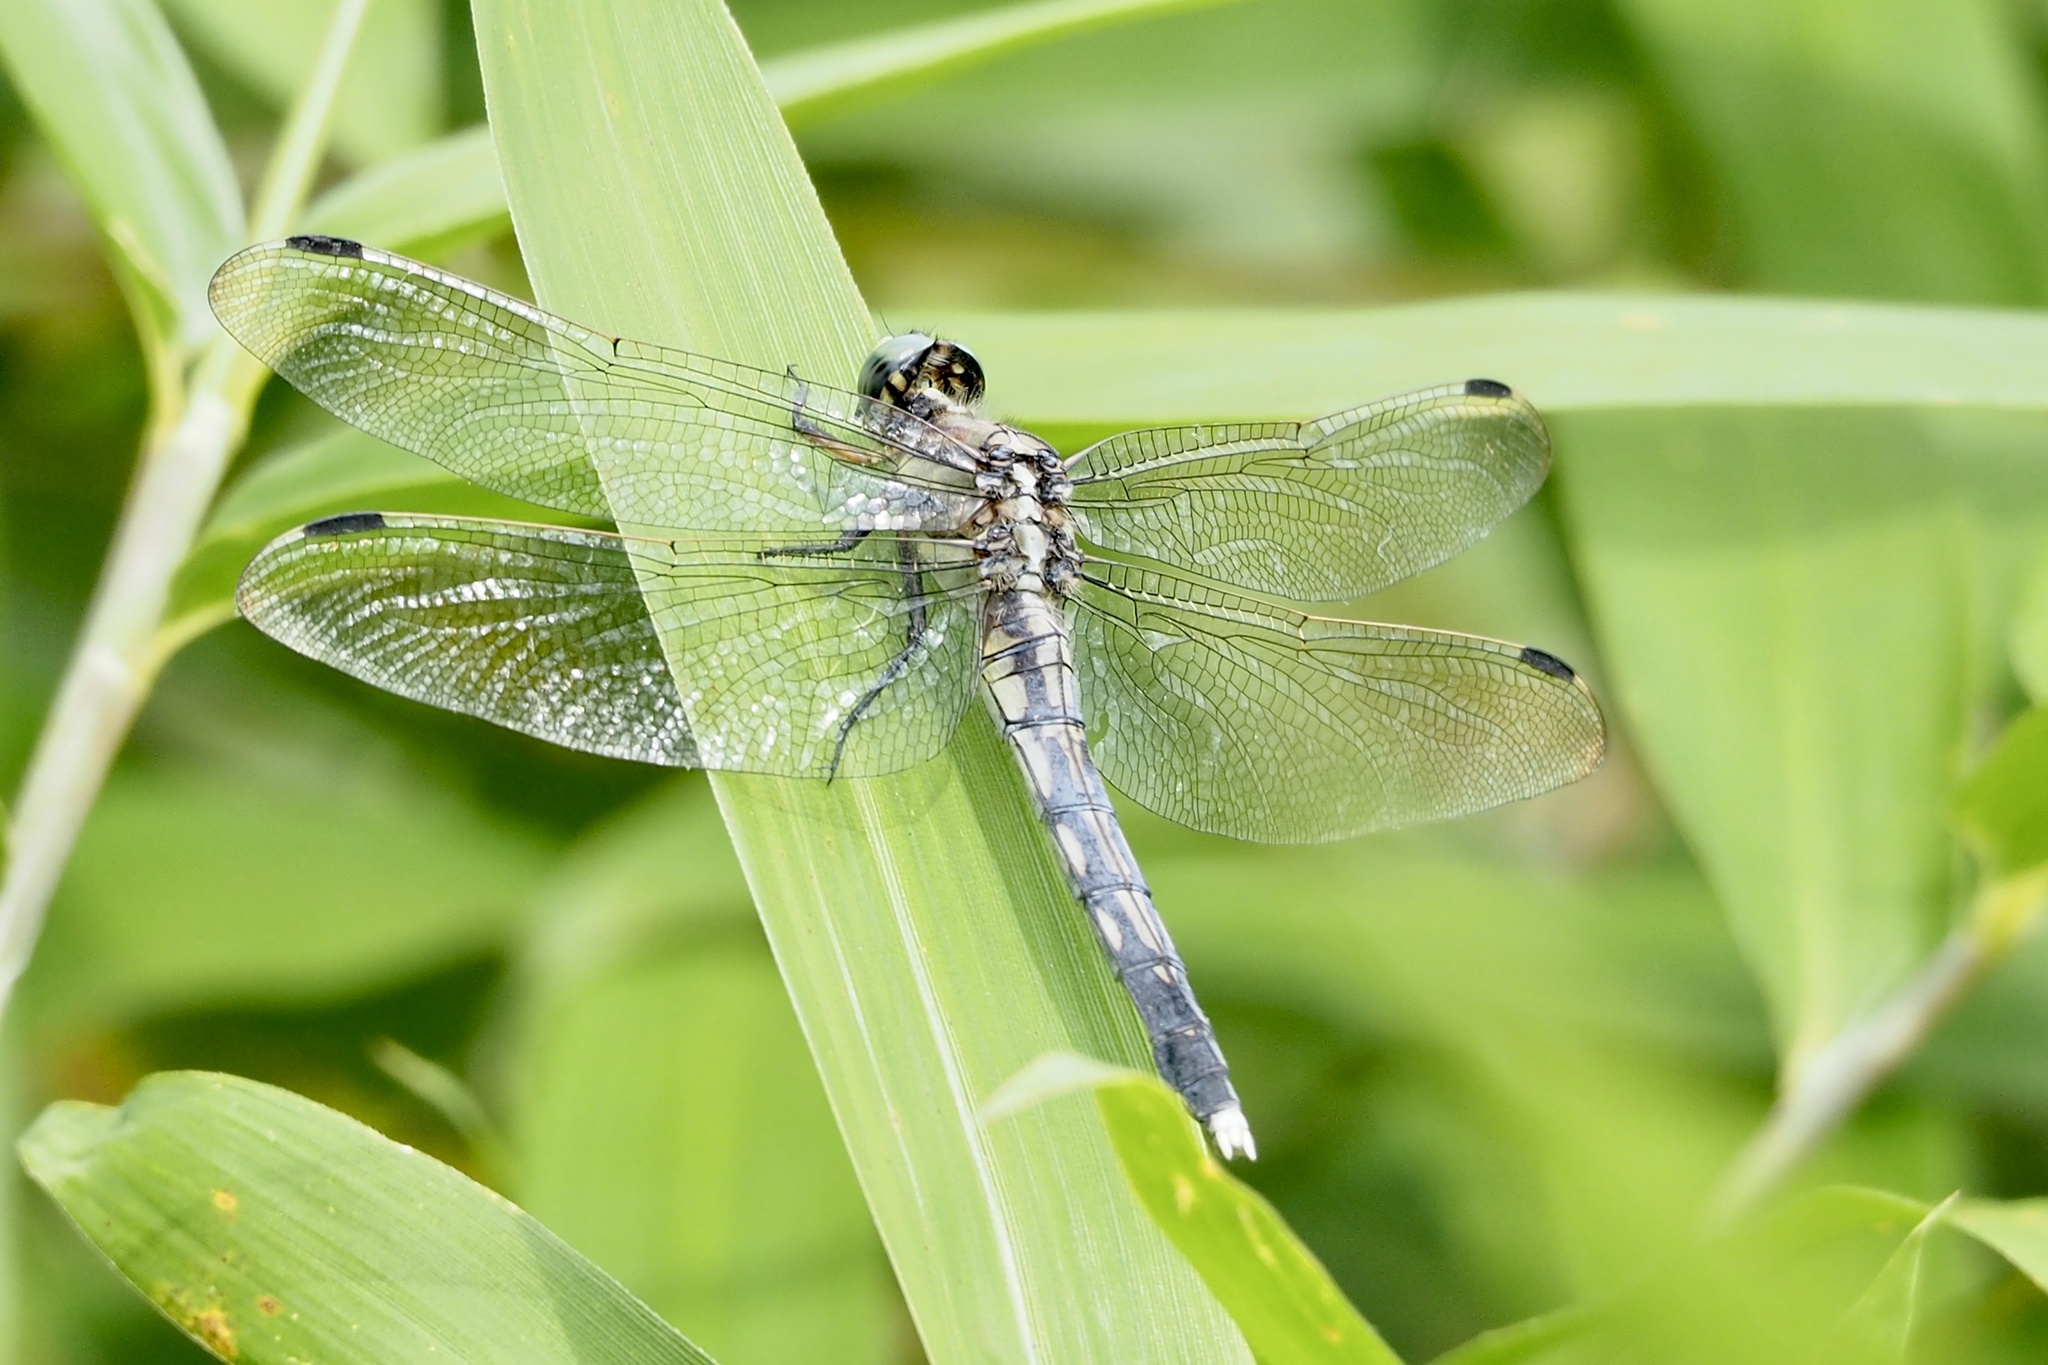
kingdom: Animalia
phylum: Arthropoda
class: Insecta
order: Odonata
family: Libellulidae
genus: Orthetrum
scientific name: Orthetrum albistylum
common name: White-tailed skimmer
